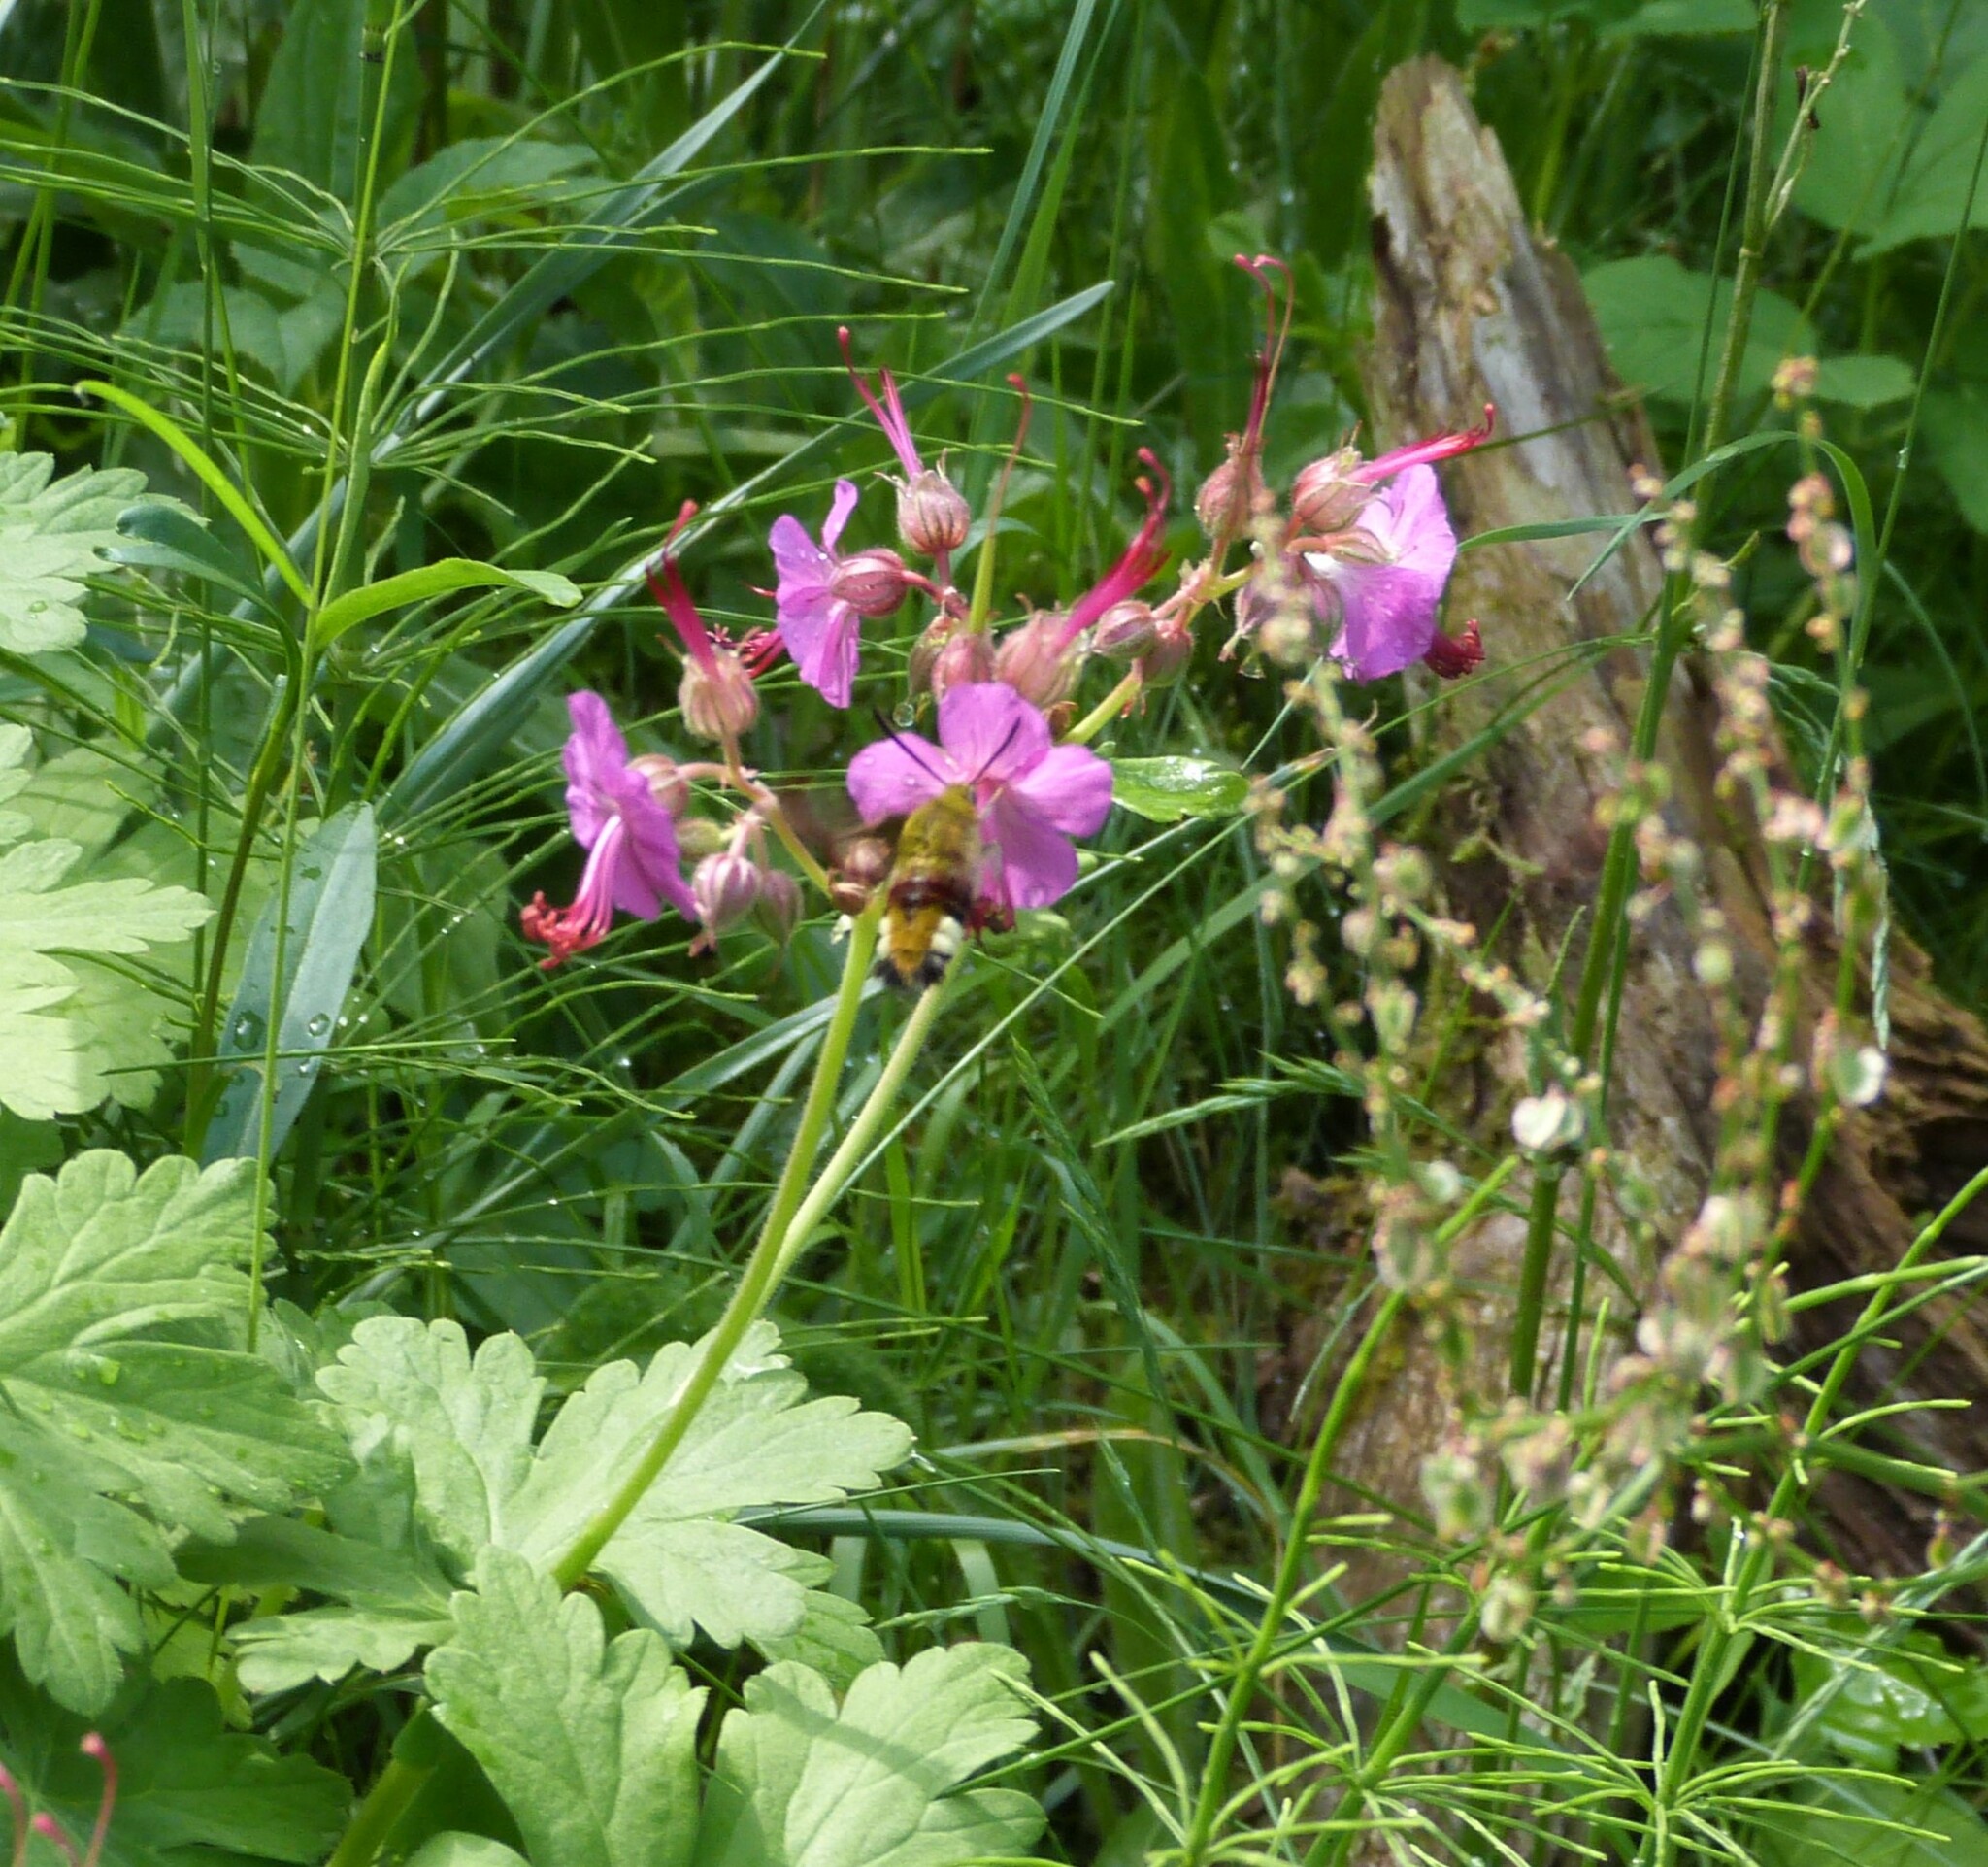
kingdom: Animalia
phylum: Arthropoda
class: Insecta
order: Lepidoptera
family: Sphingidae
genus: Hemaris
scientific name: Hemaris fuciformis
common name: Broad-bordered bee hawk-moth
